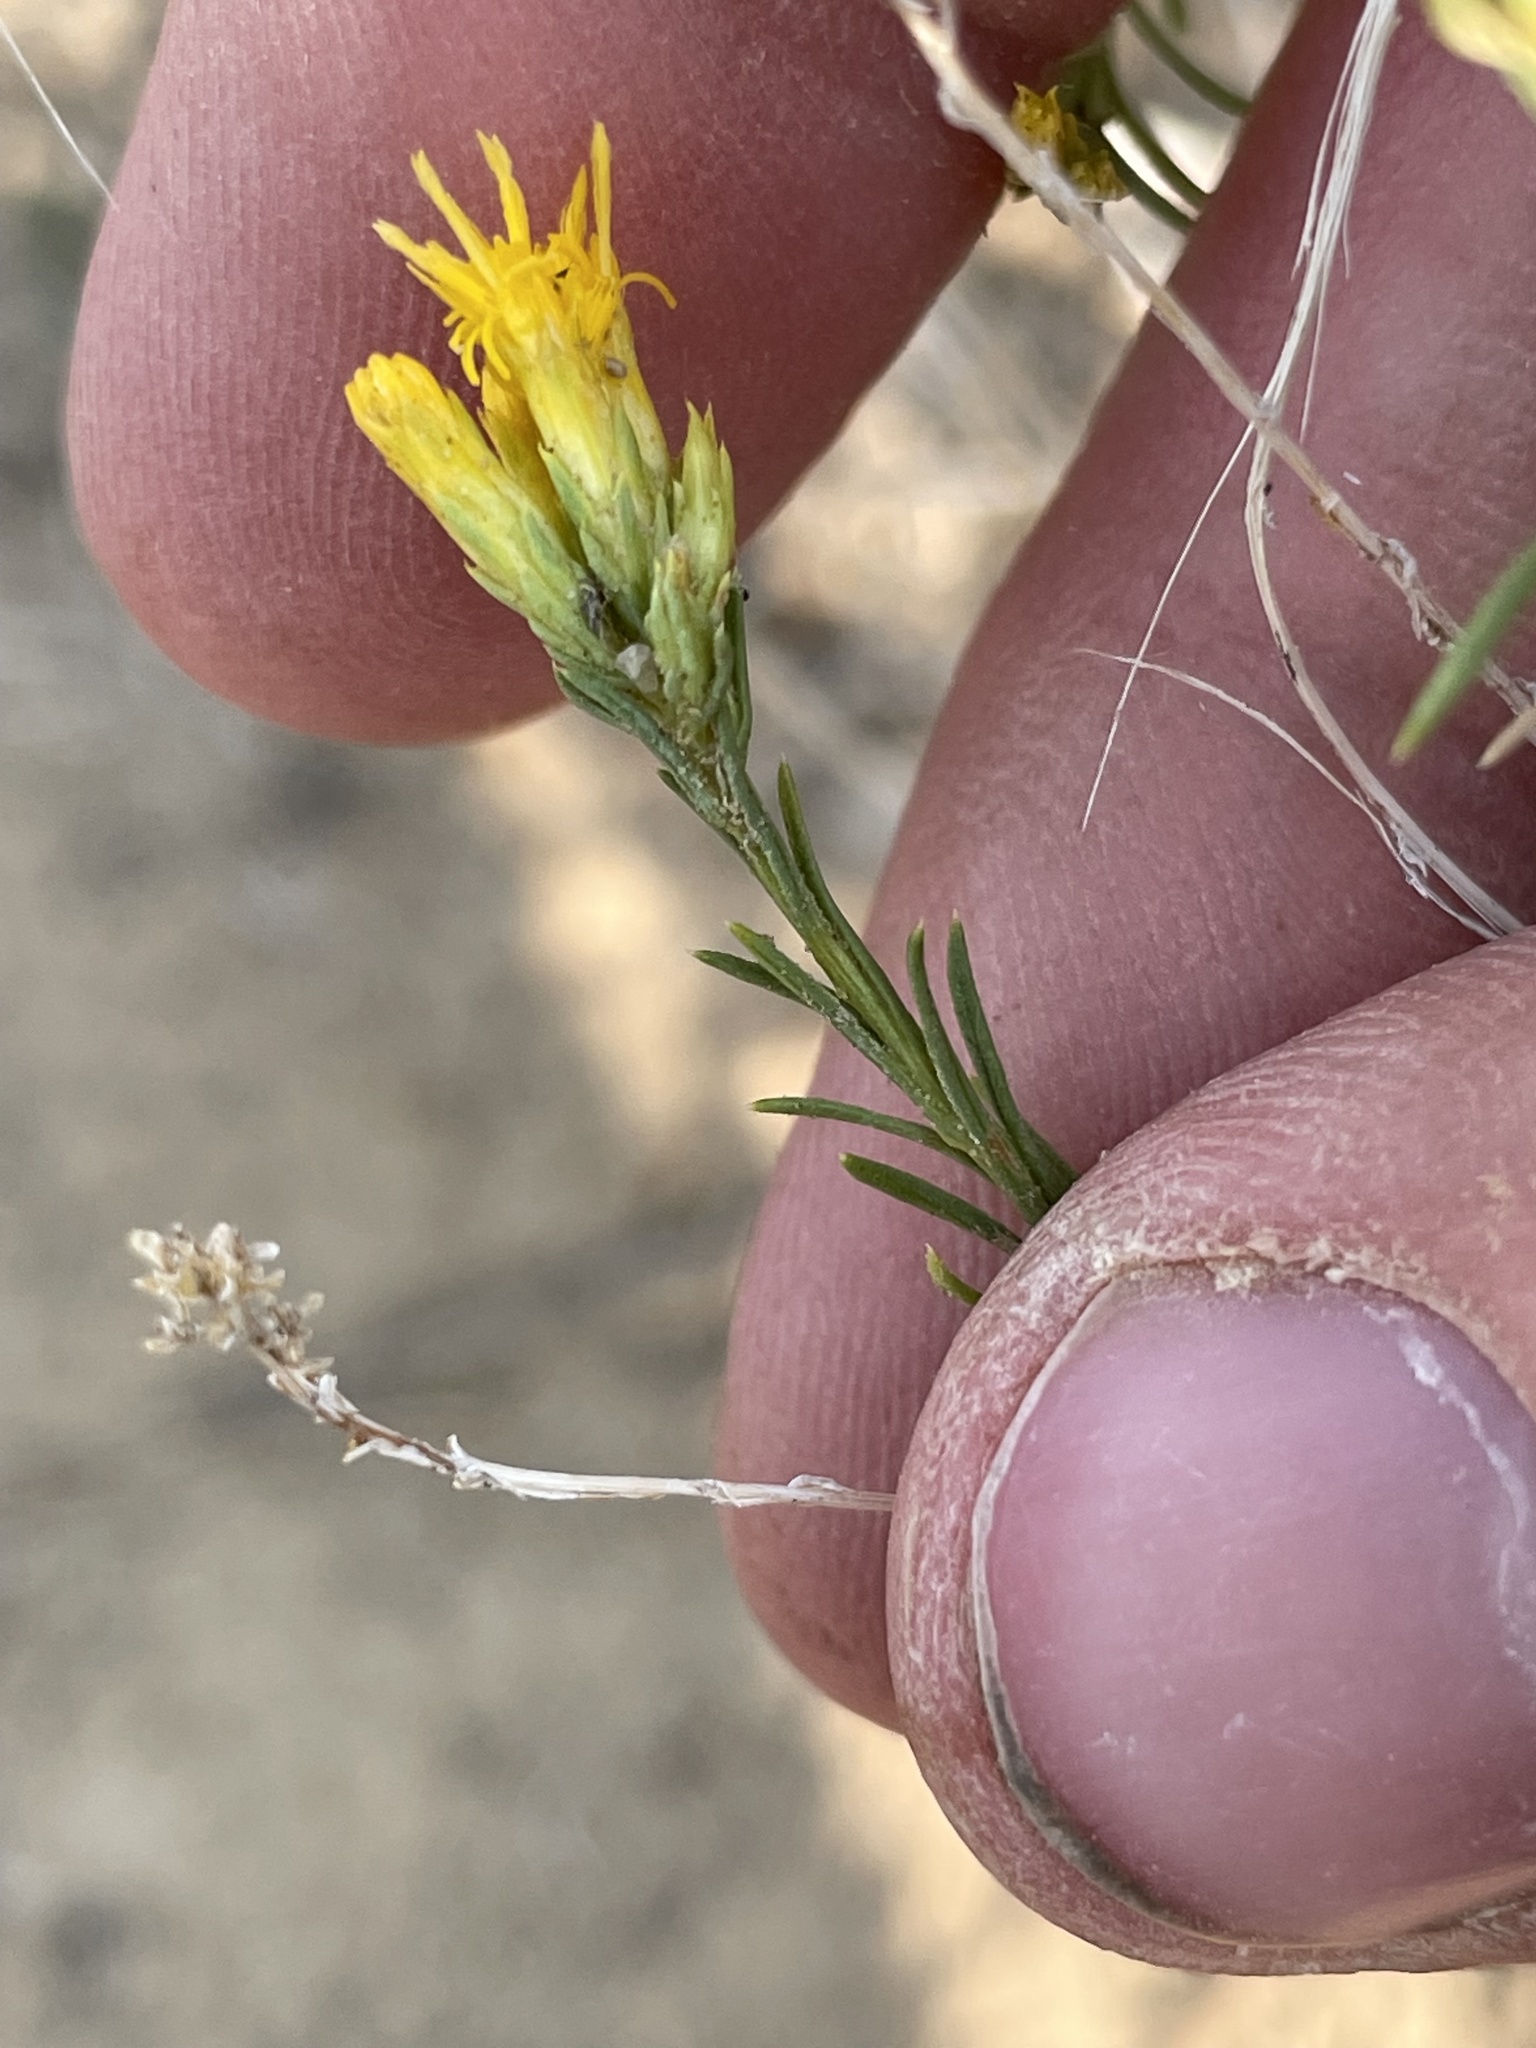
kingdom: Plantae
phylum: Tracheophyta
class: Magnoliopsida
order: Asterales
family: Asteraceae
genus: Chrysothamnus
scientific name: Chrysothamnus greenei
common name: Greene's rabbitbrush
